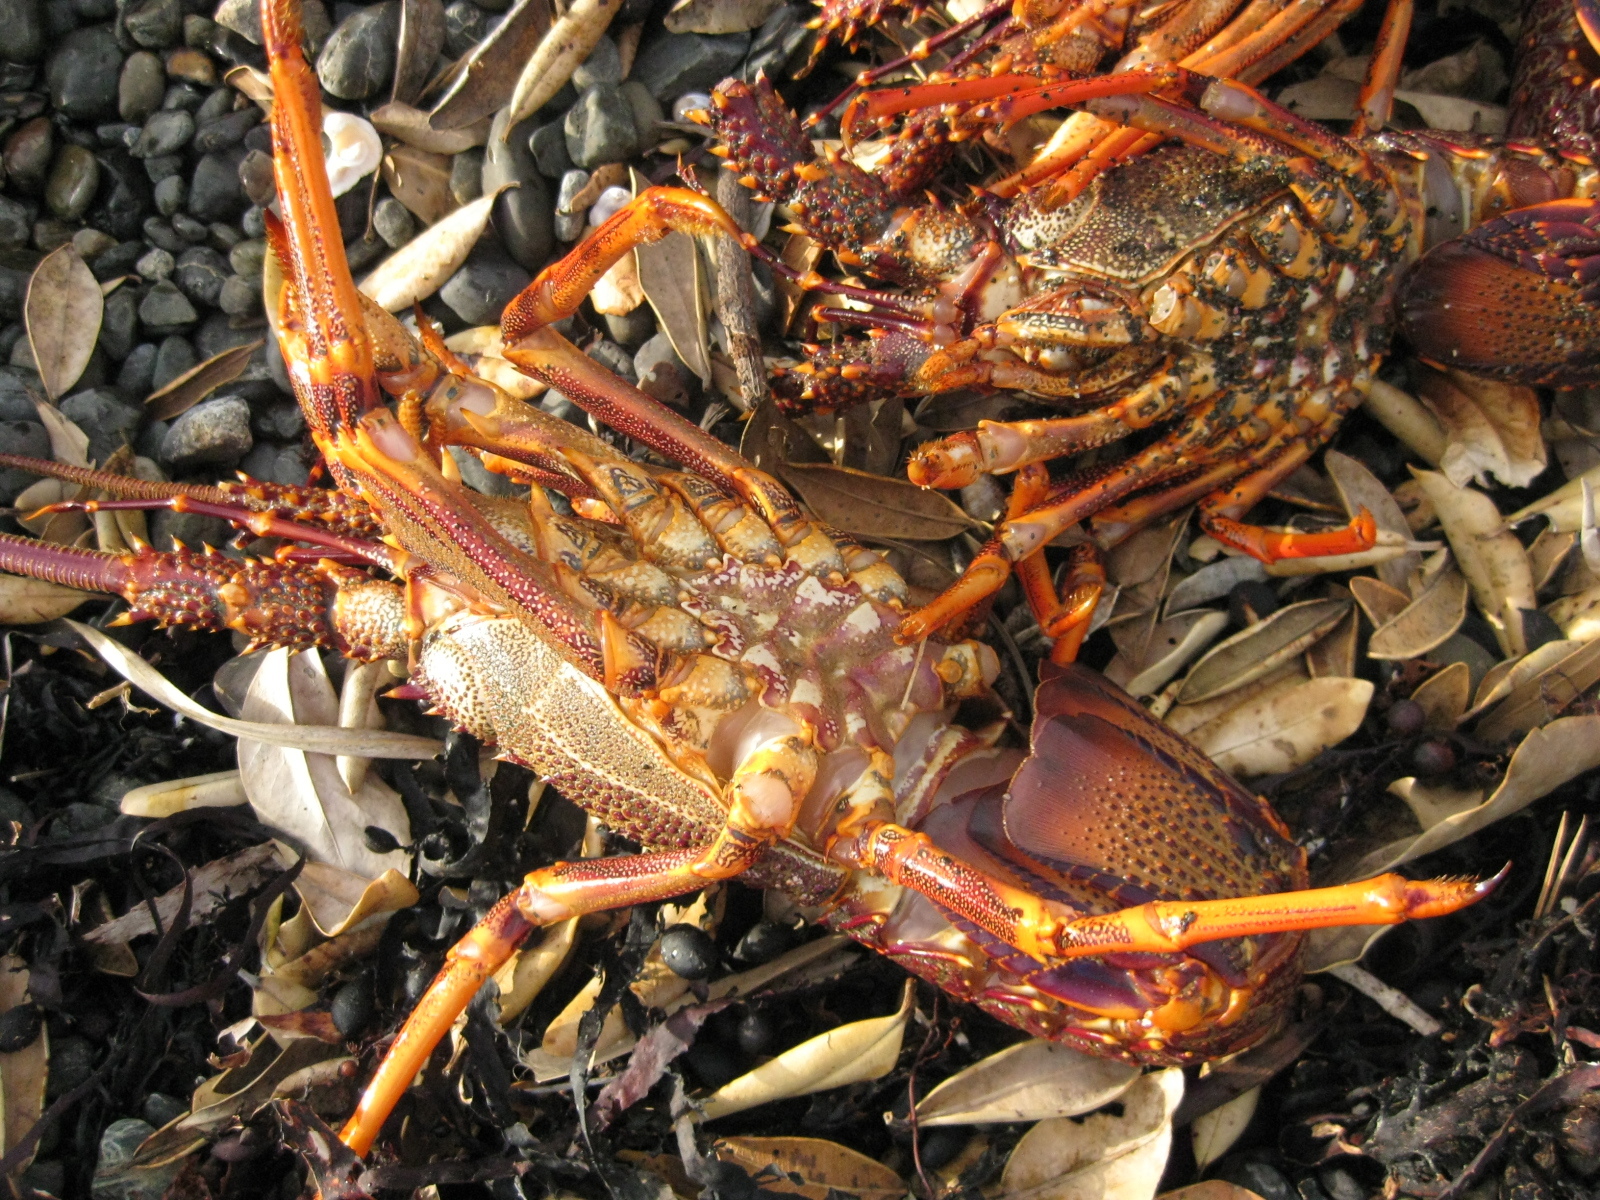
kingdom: Animalia
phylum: Arthropoda
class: Malacostraca
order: Decapoda
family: Palinuridae
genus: Jasus
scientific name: Jasus edwardsii
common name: Red rock lobster
